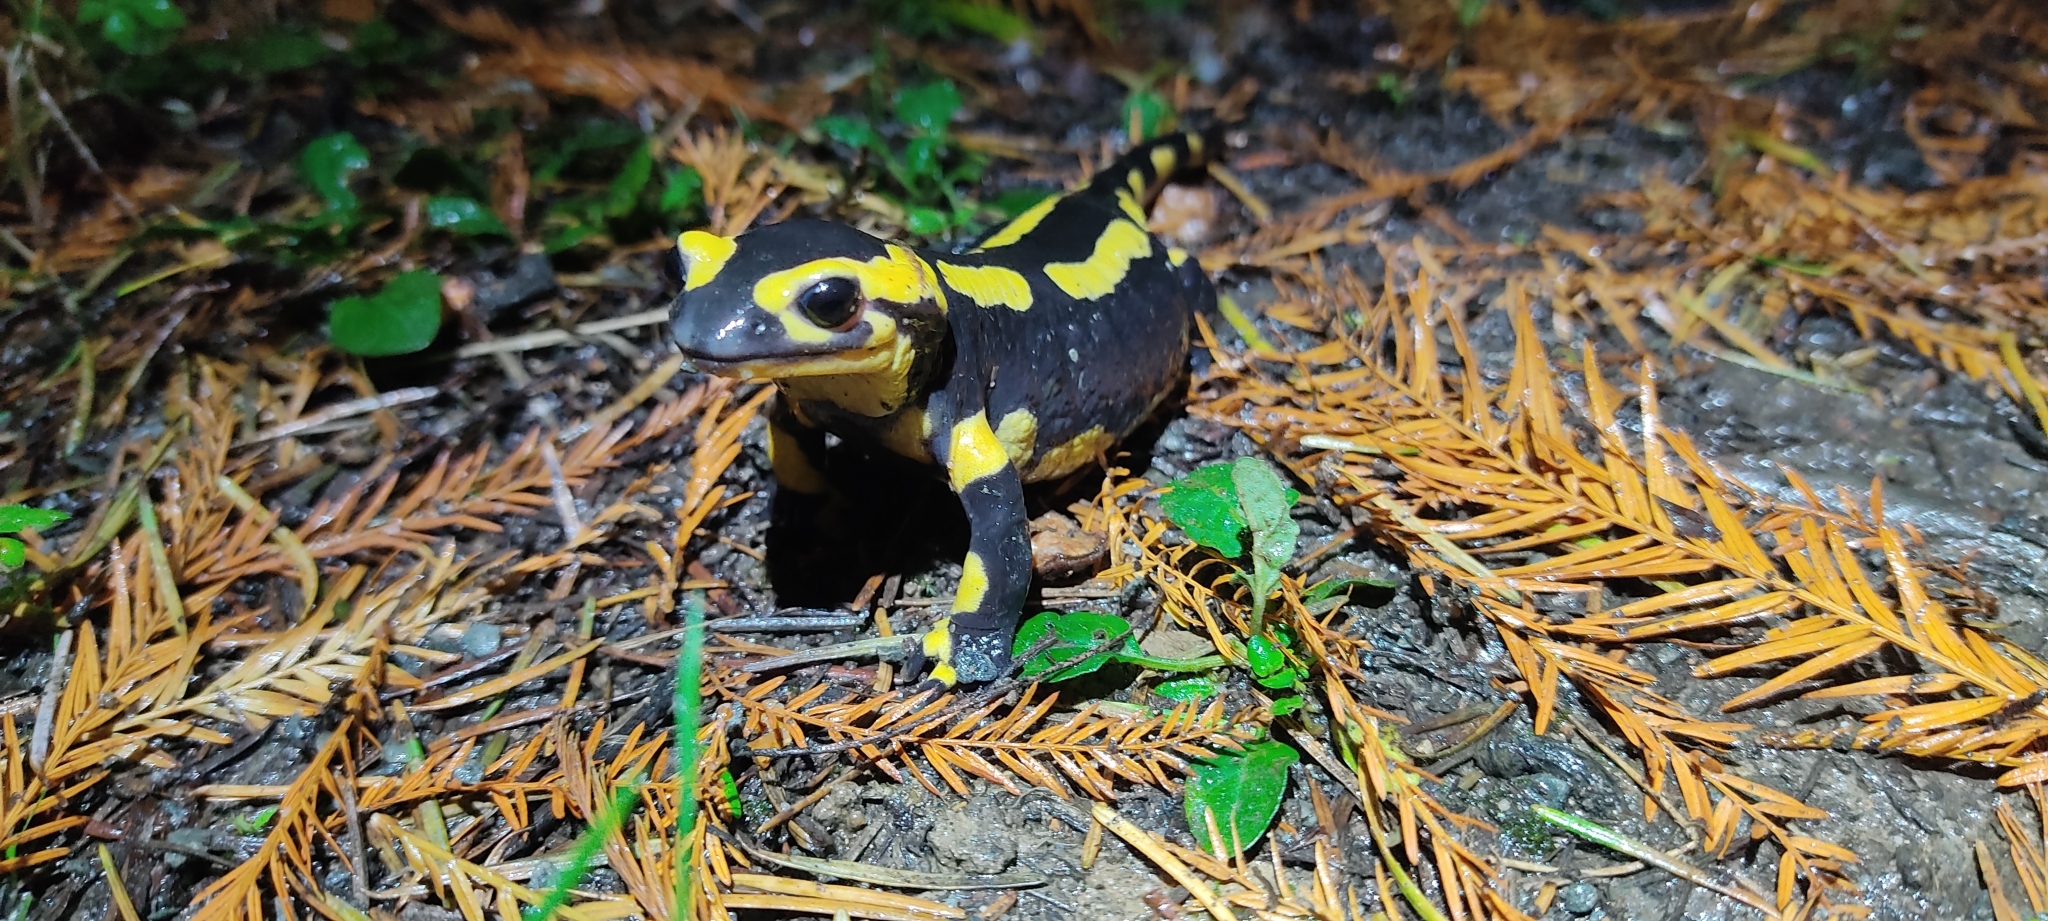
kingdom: Animalia
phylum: Chordata
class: Amphibia
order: Caudata
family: Salamandridae
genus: Salamandra
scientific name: Salamandra salamandra
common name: Fire salamander
